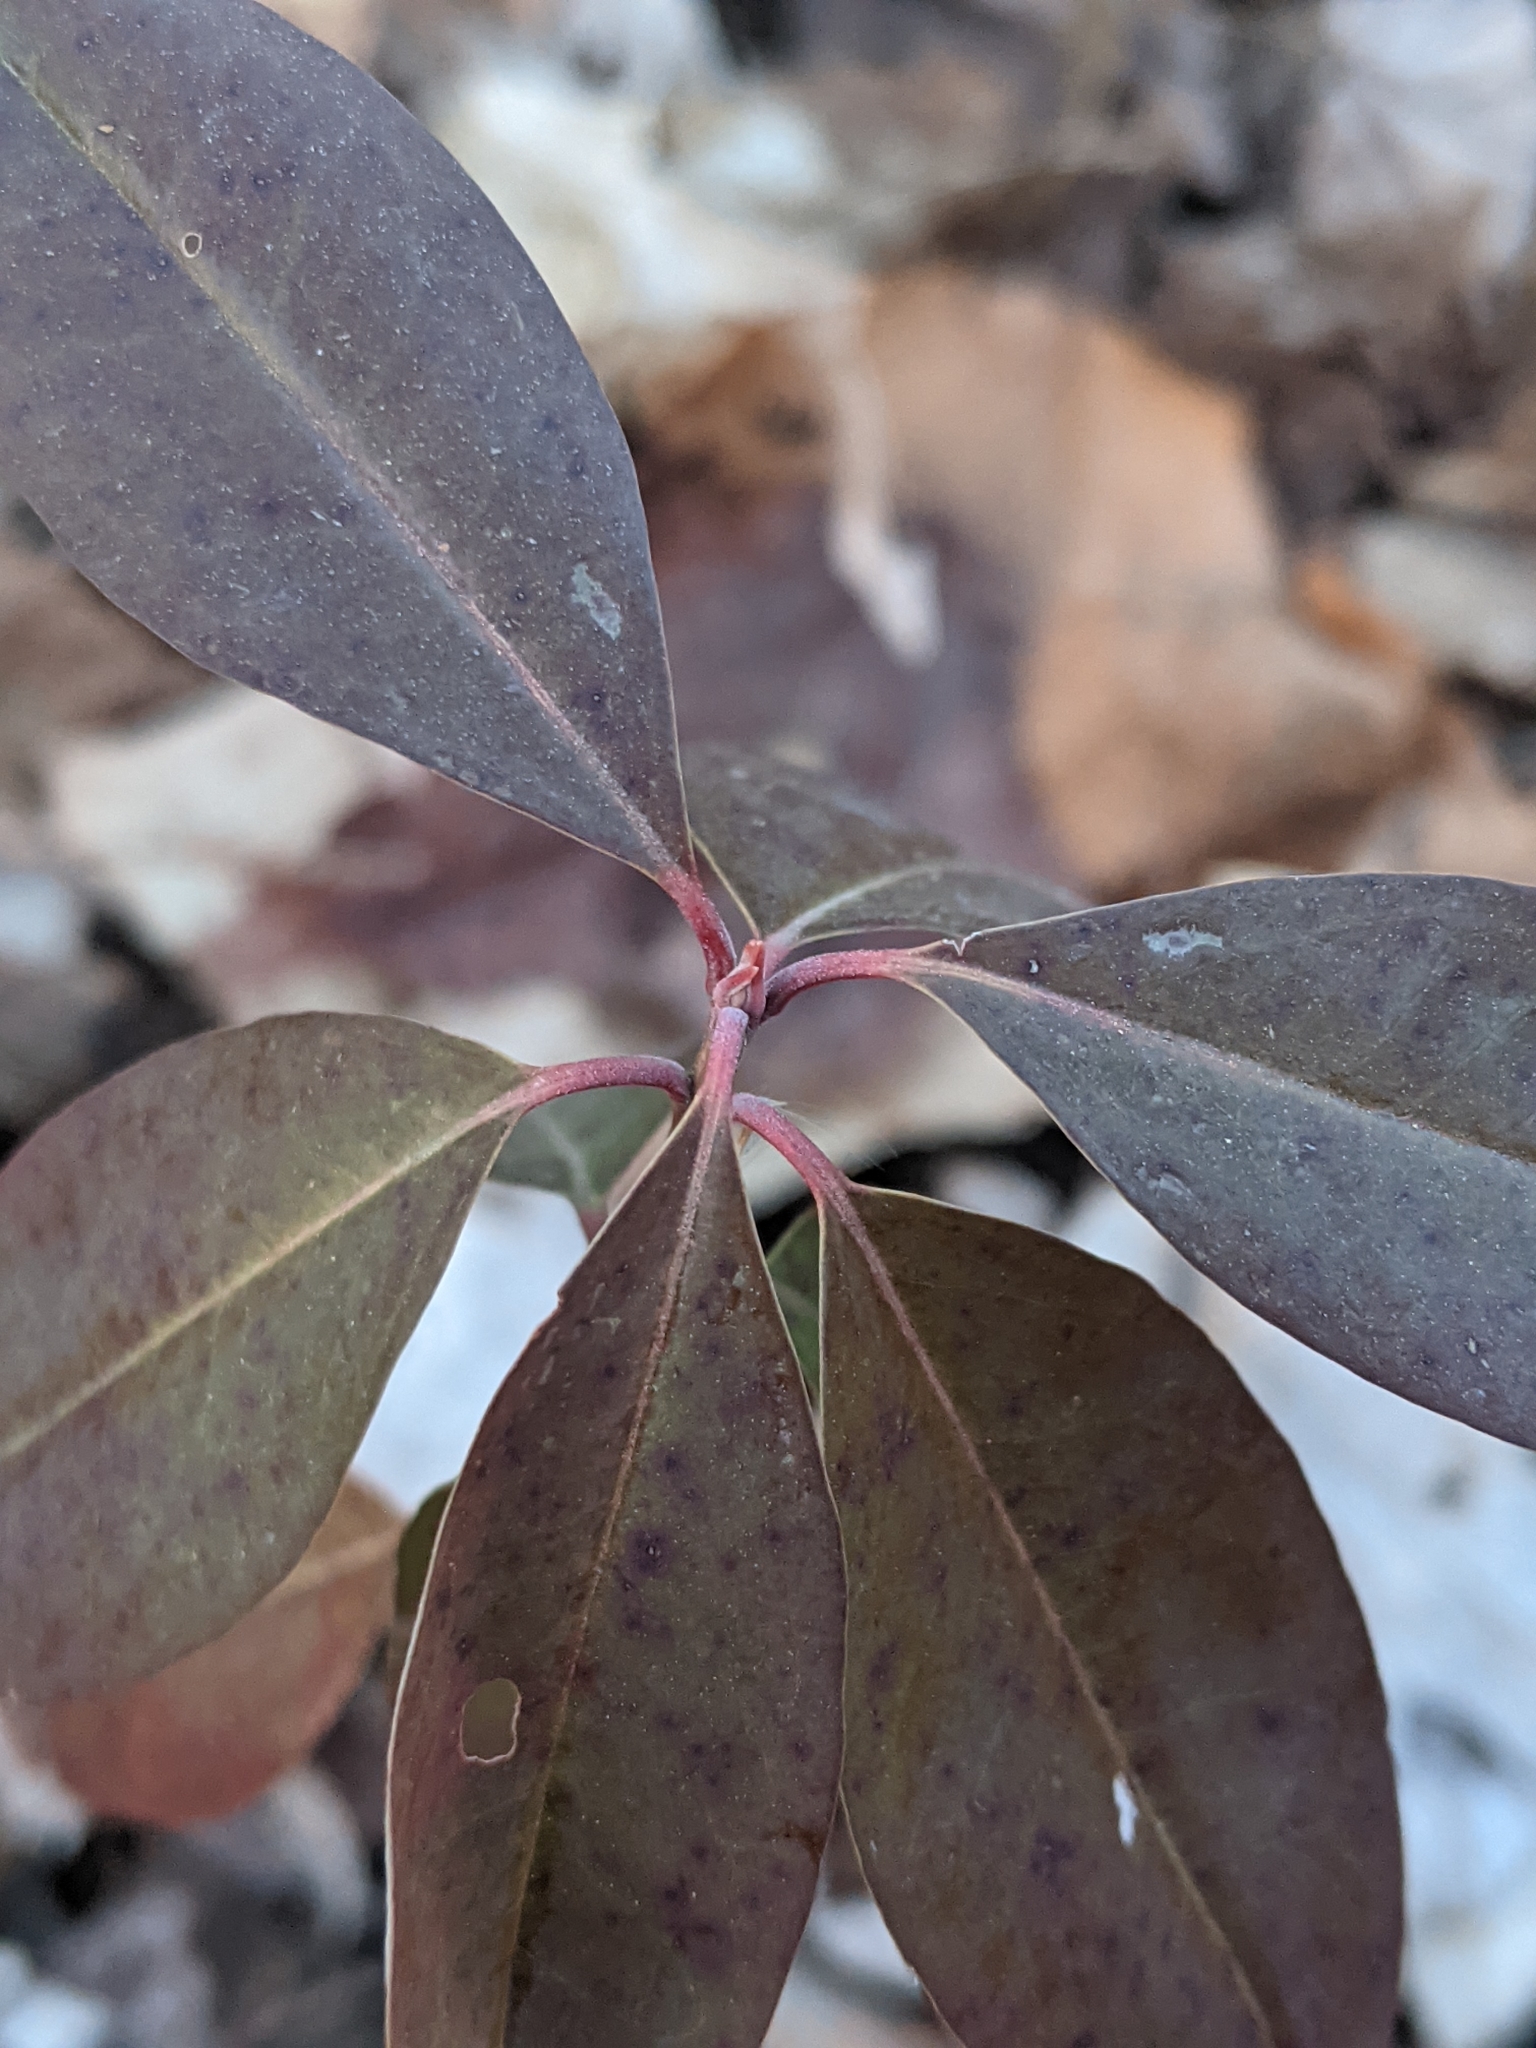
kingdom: Plantae
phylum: Tracheophyta
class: Magnoliopsida
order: Ericales
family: Ericaceae
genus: Kalmia
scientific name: Kalmia angustifolia
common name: Sheep-laurel
